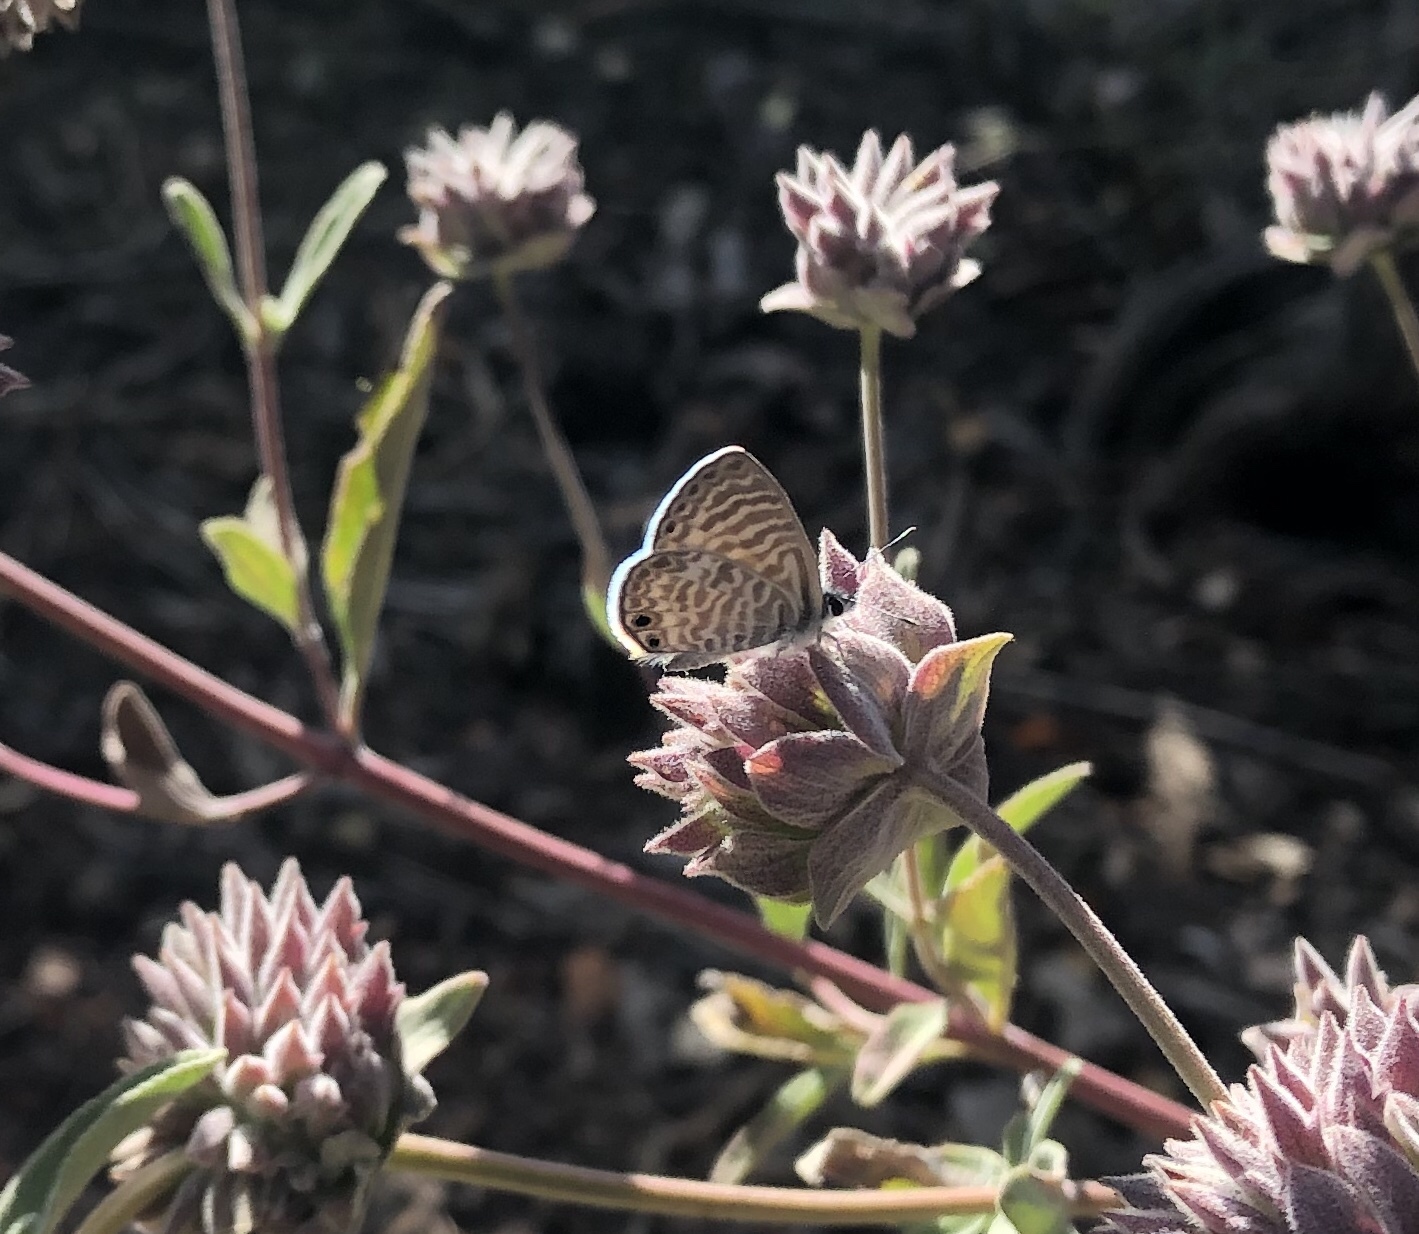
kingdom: Animalia
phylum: Arthropoda
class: Insecta
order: Lepidoptera
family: Lycaenidae
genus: Leptotes
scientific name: Leptotes marina
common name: Marine blue
